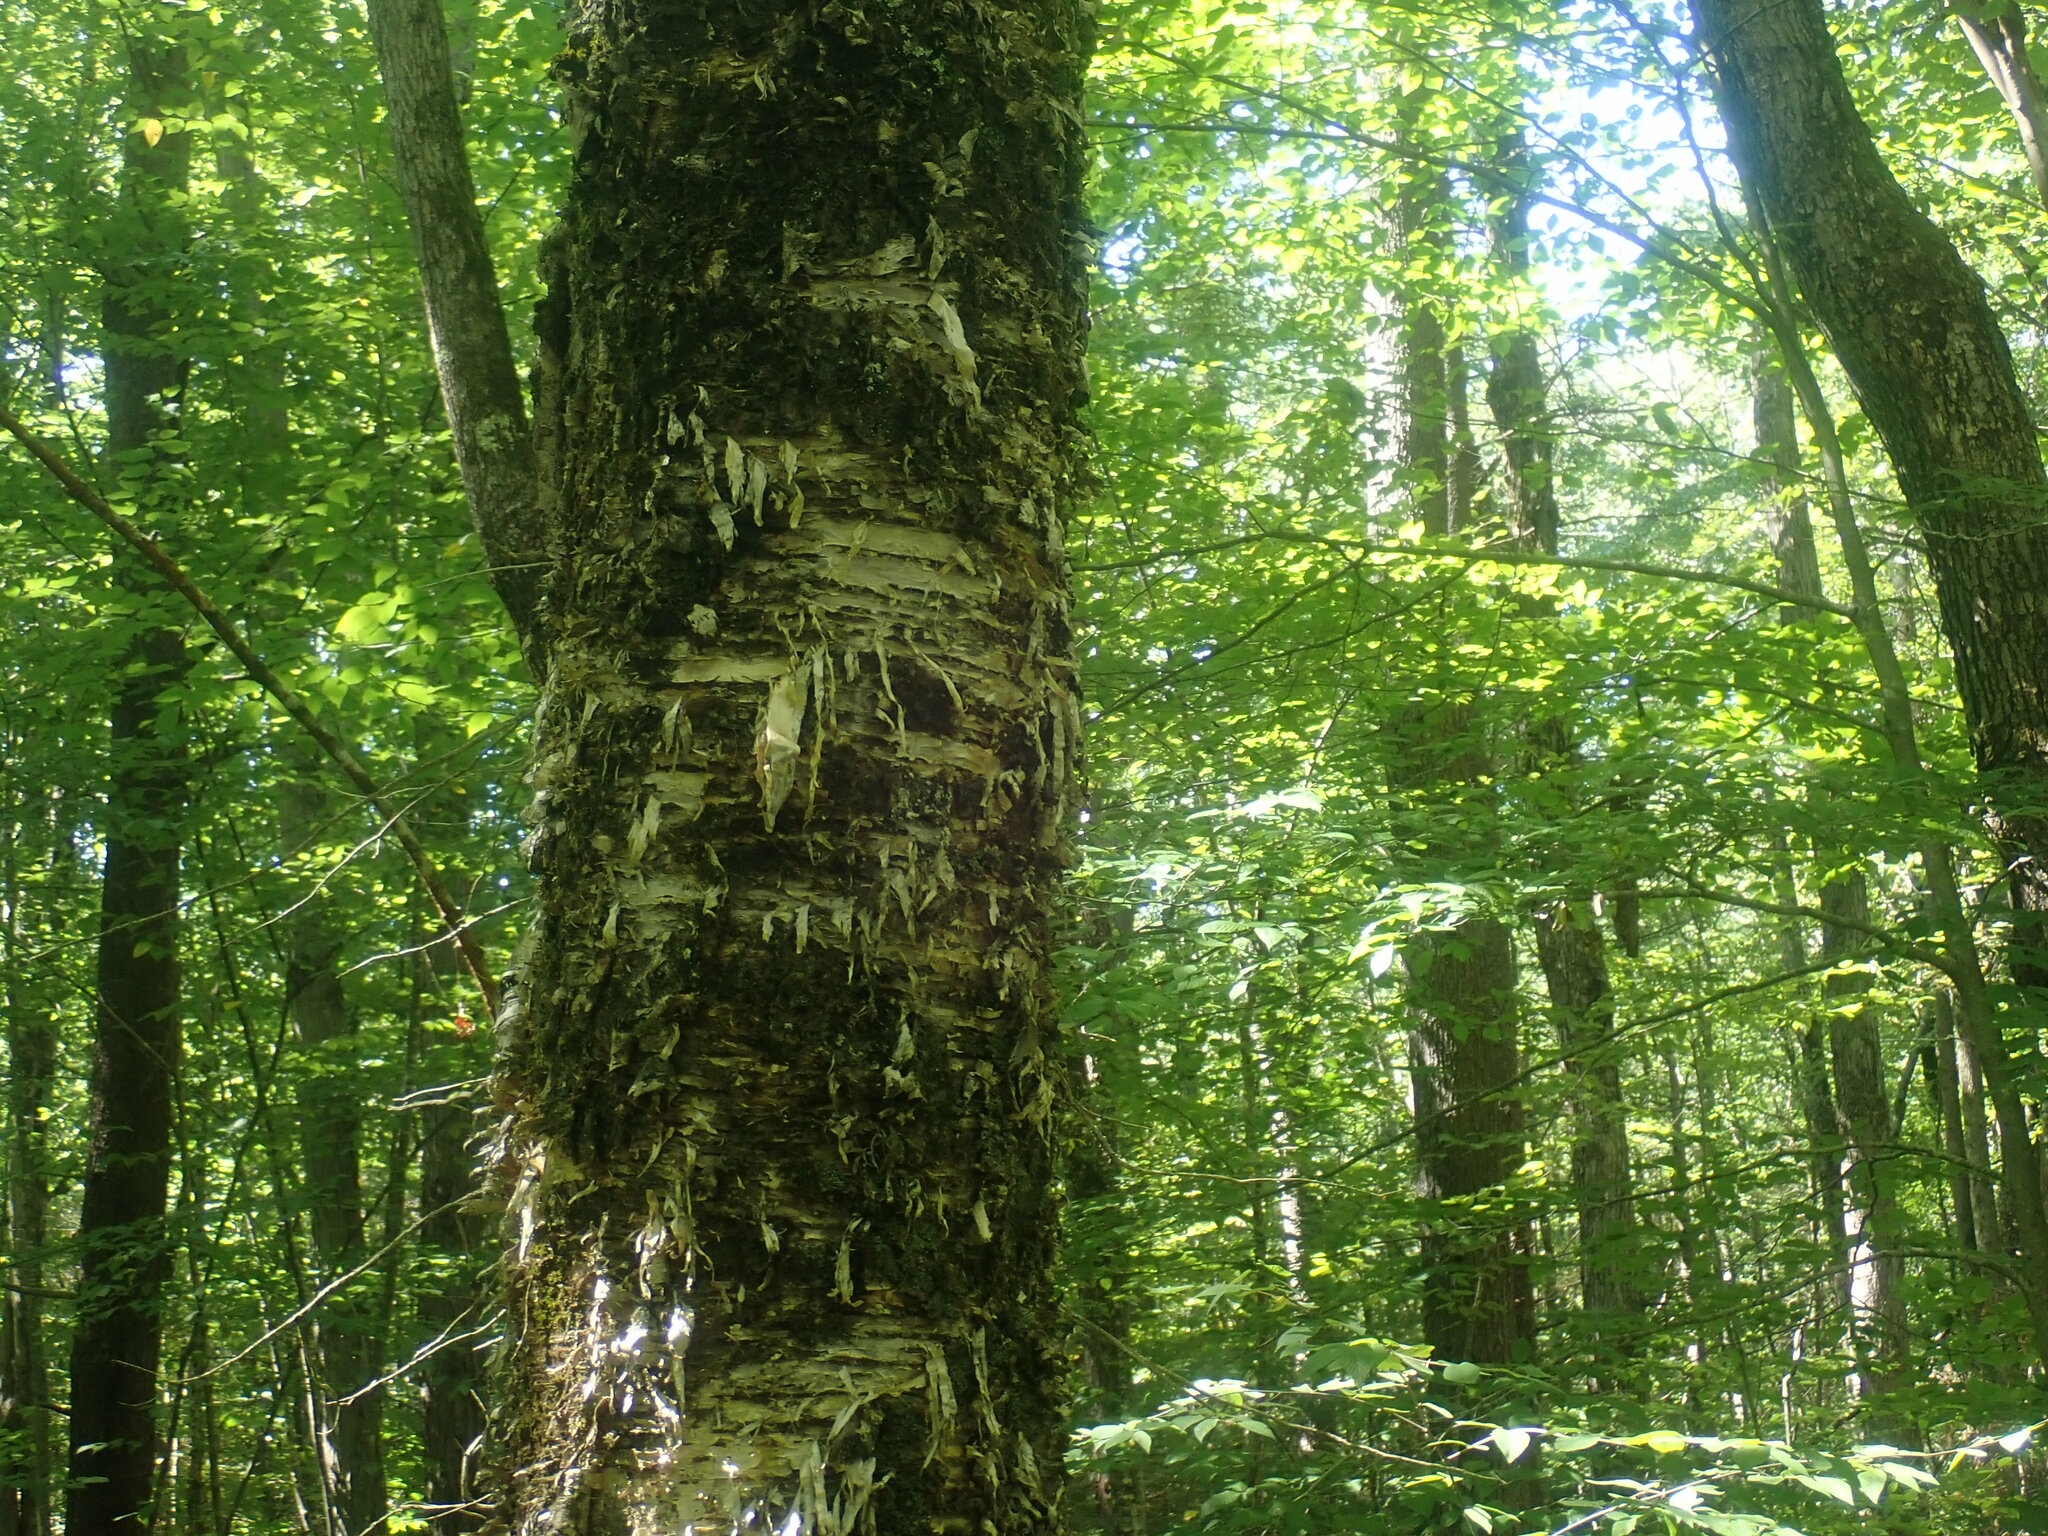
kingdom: Plantae
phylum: Tracheophyta
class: Magnoliopsida
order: Fagales
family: Betulaceae
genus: Betula
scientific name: Betula alleghaniensis
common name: Yellow birch
